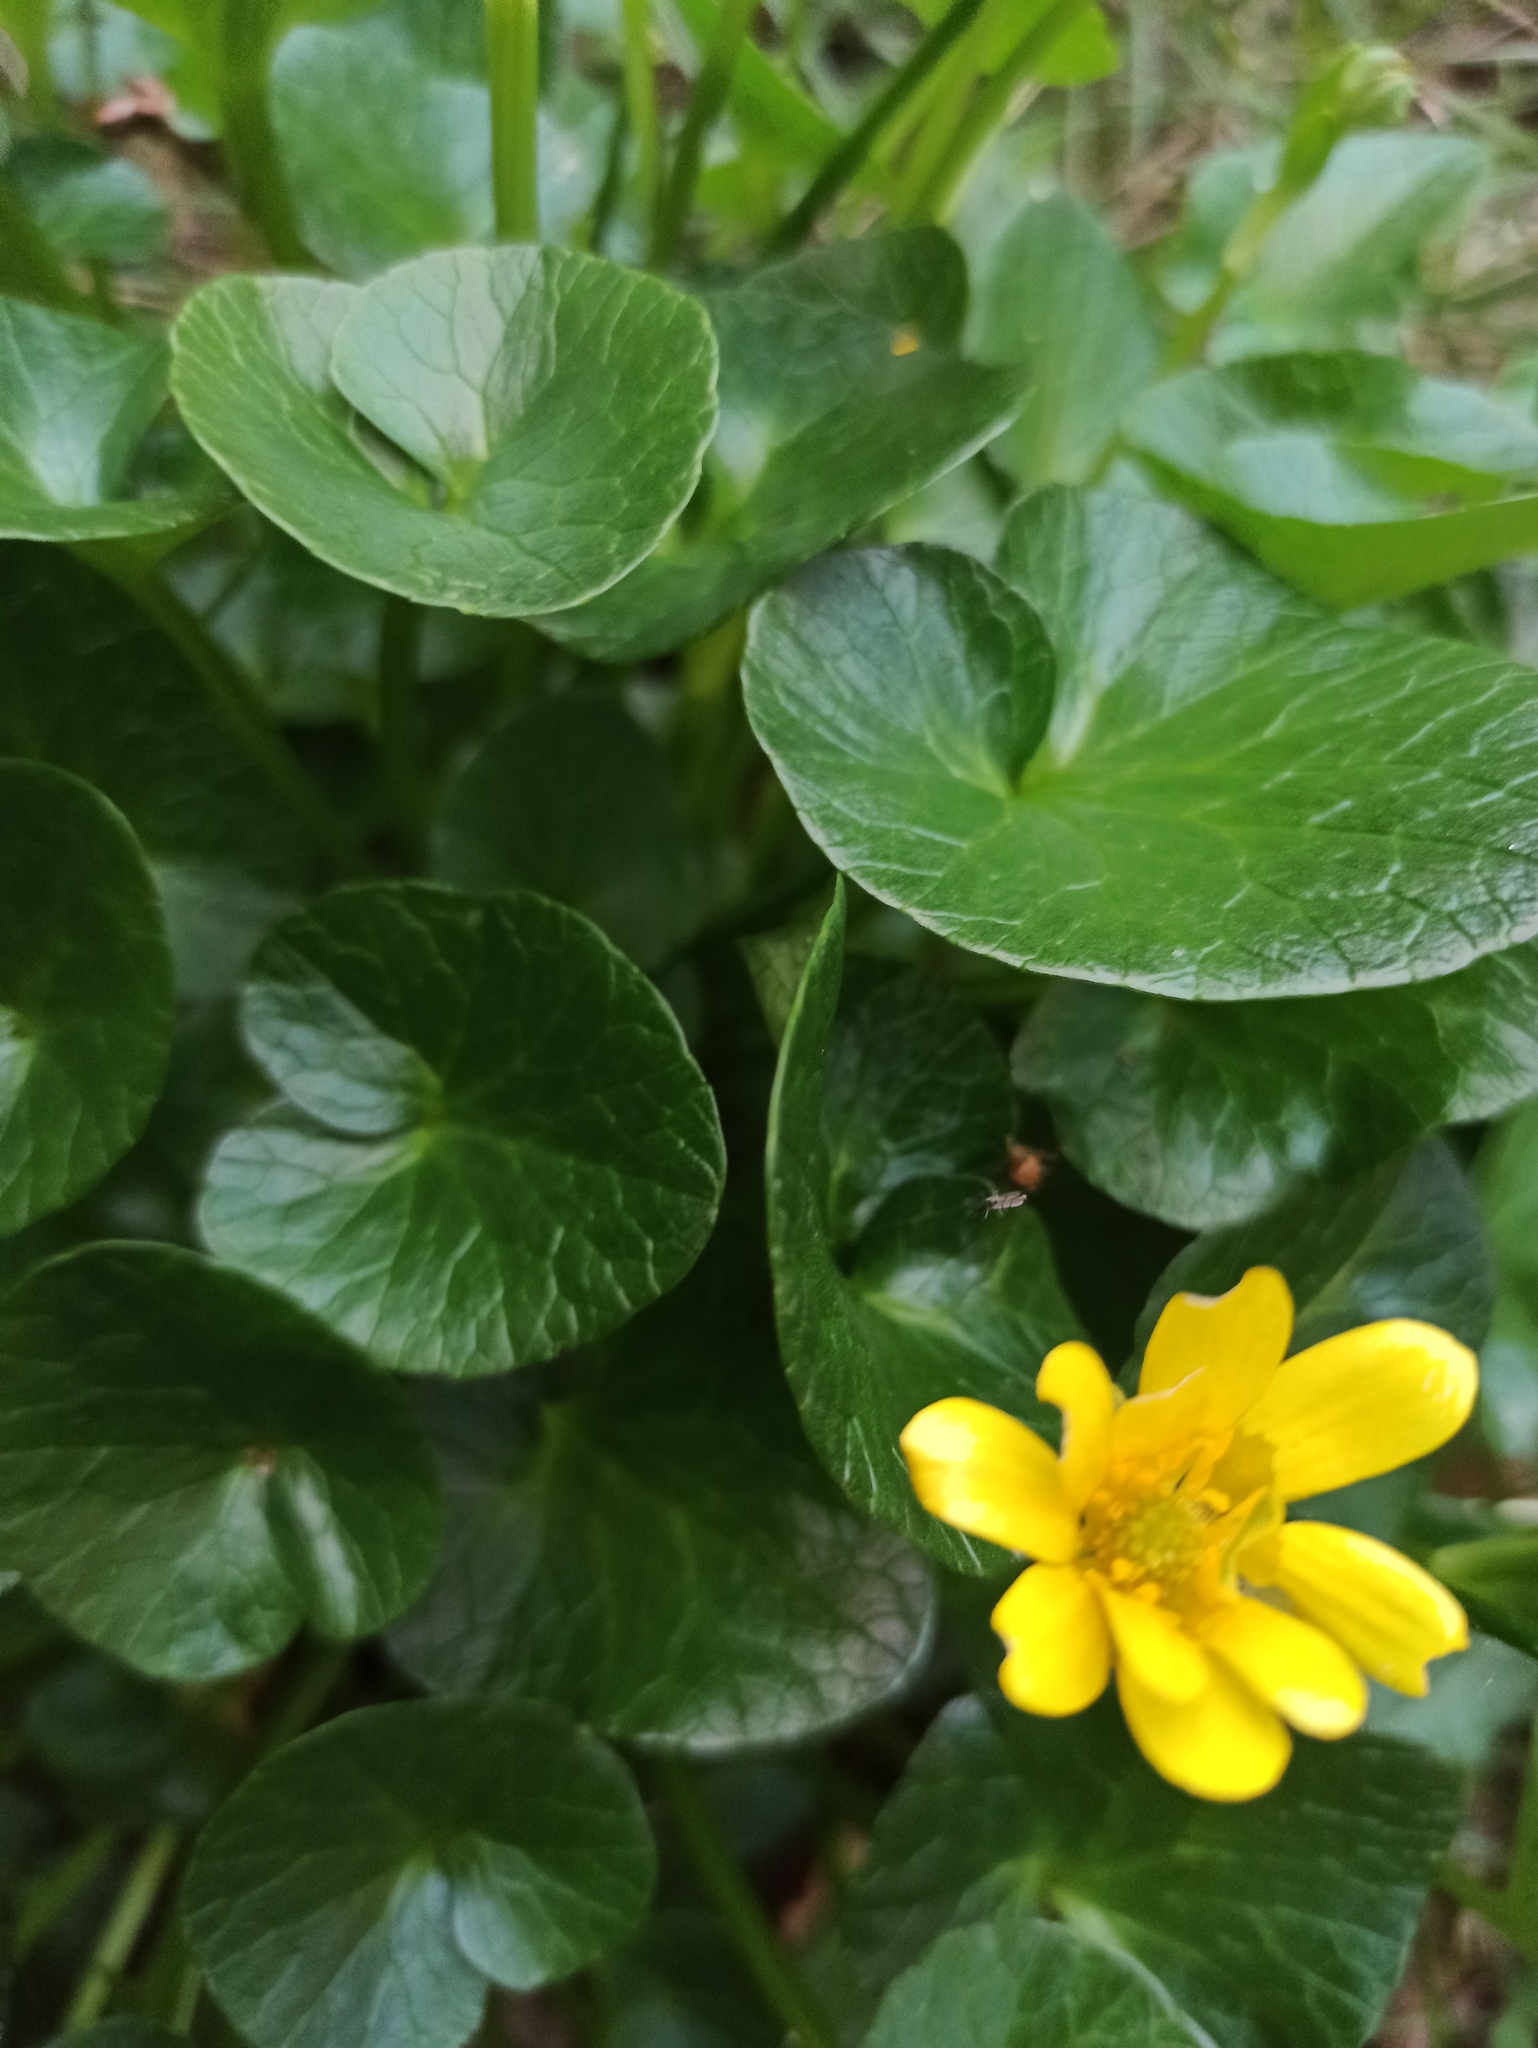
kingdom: Plantae
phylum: Tracheophyta
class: Magnoliopsida
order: Ranunculales
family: Ranunculaceae
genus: Ficaria
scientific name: Ficaria verna
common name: Lesser celandine
